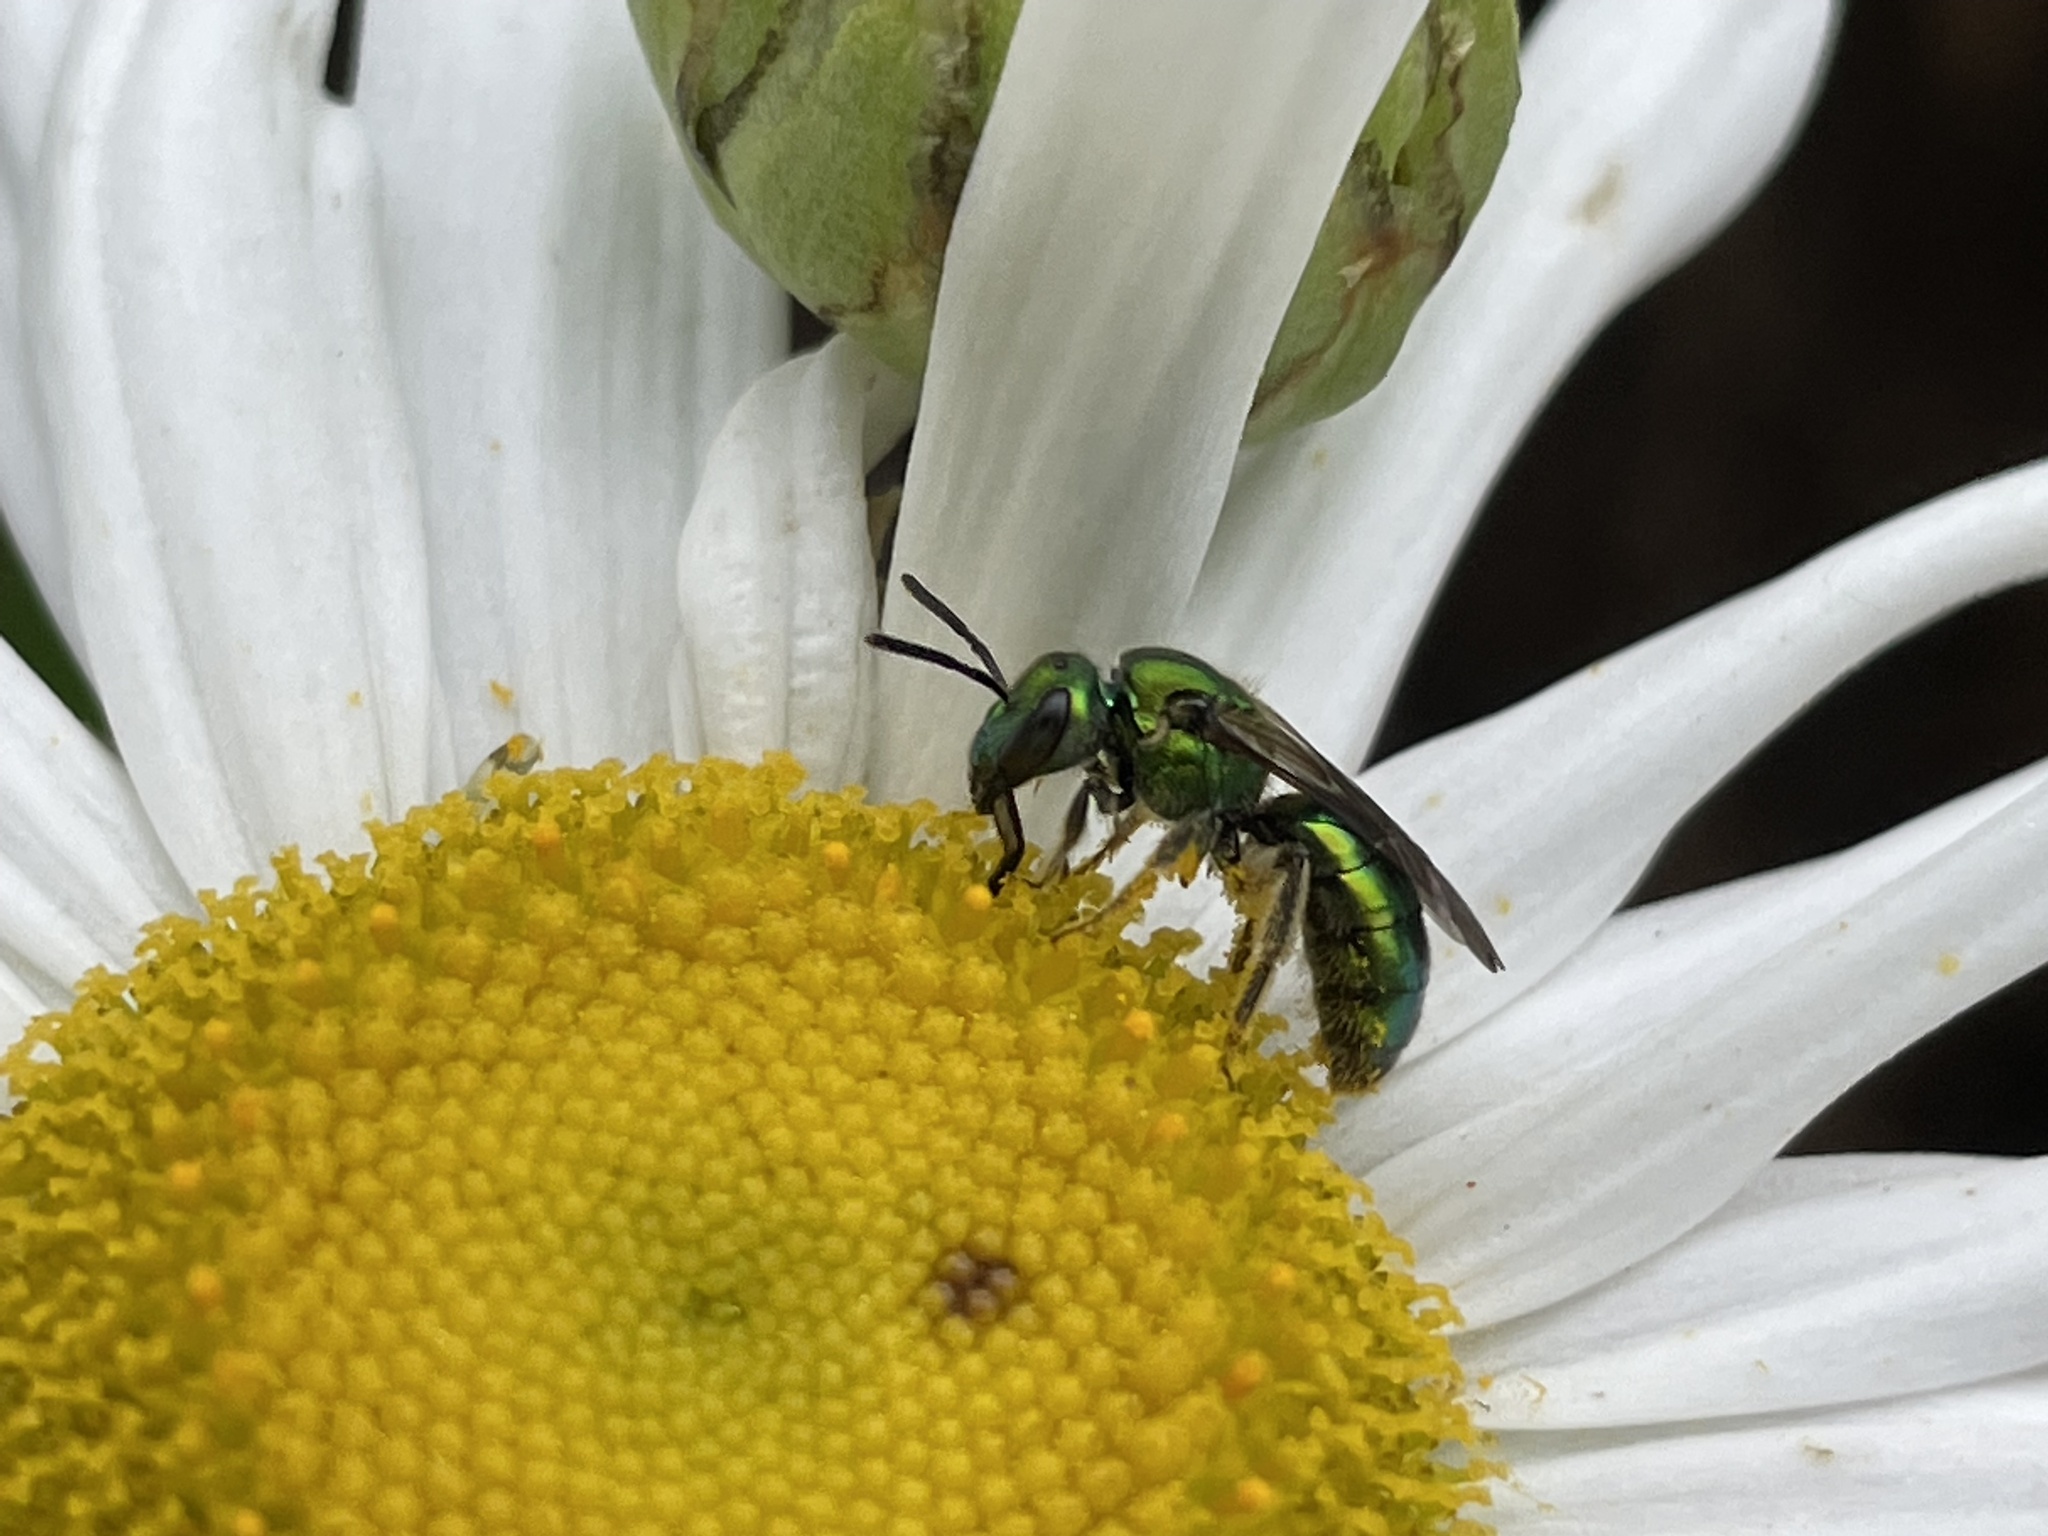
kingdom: Animalia
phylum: Arthropoda
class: Insecta
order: Hymenoptera
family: Halictidae
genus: Augochlora
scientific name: Augochlora pura
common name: Pure green sweat bee
